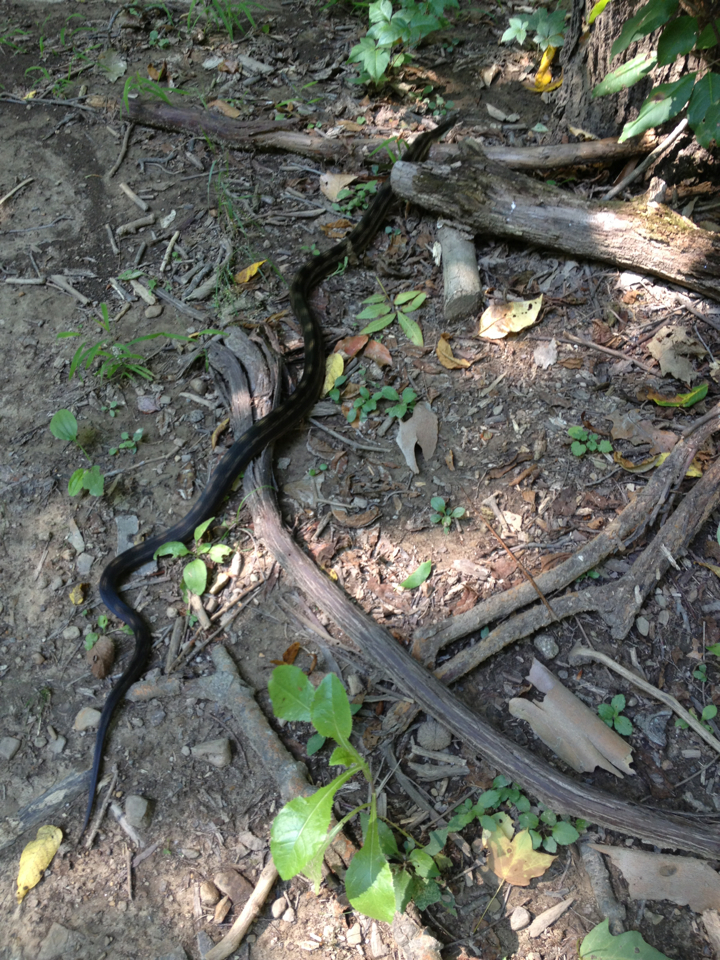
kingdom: Animalia
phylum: Chordata
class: Squamata
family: Colubridae
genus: Pantherophis
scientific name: Pantherophis spiloides
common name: Gray rat snake
